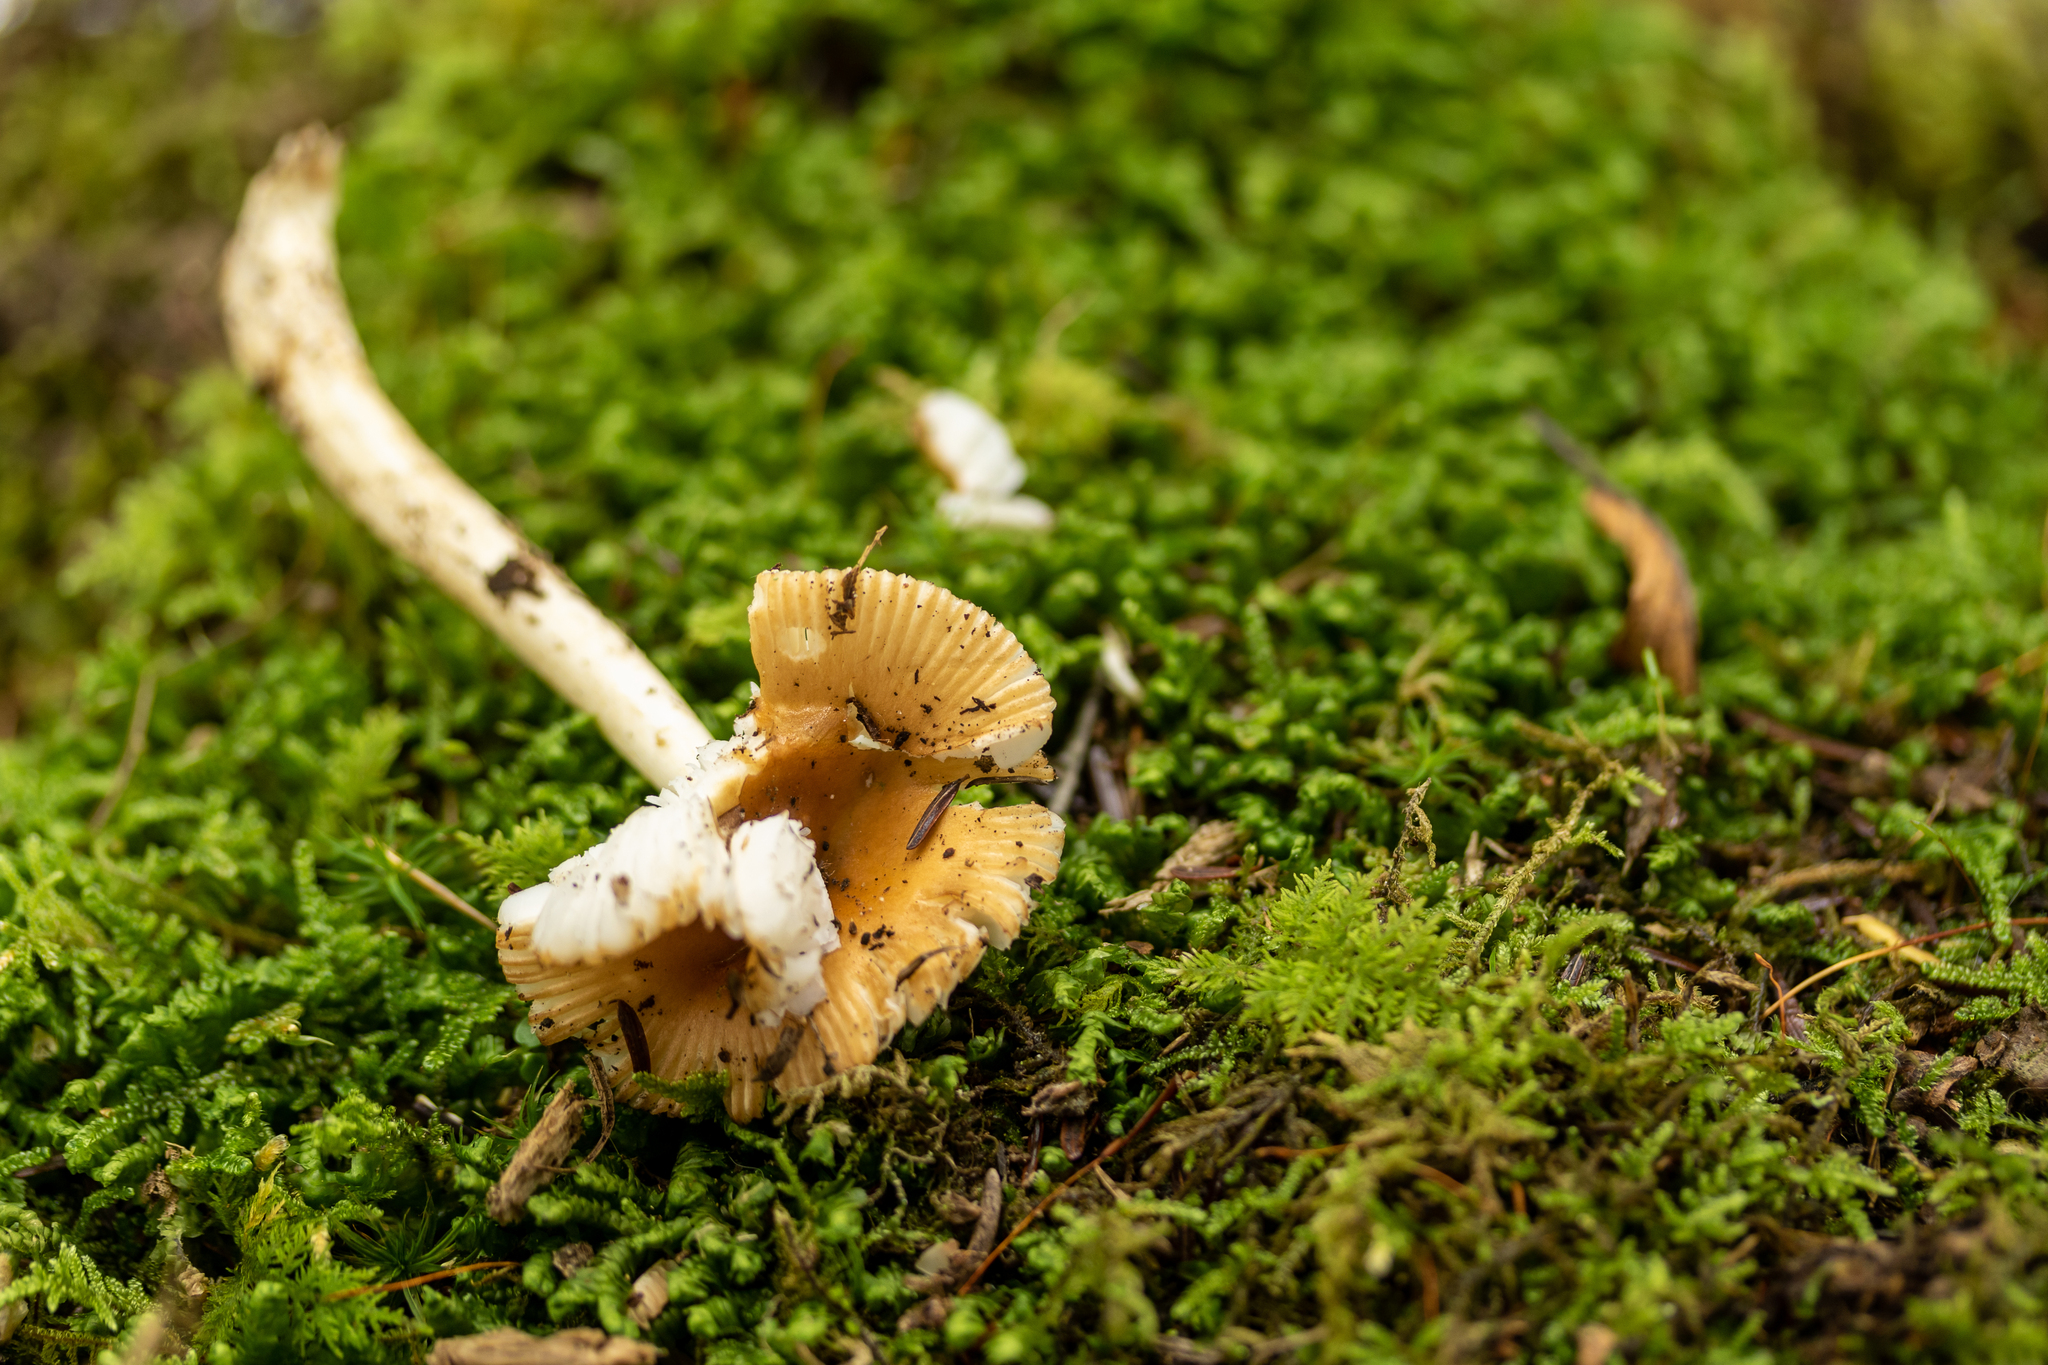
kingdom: Fungi
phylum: Basidiomycota
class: Agaricomycetes
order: Agaricales
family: Amanitaceae
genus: Amanita
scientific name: Amanita fulva
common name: Tawny grisette
